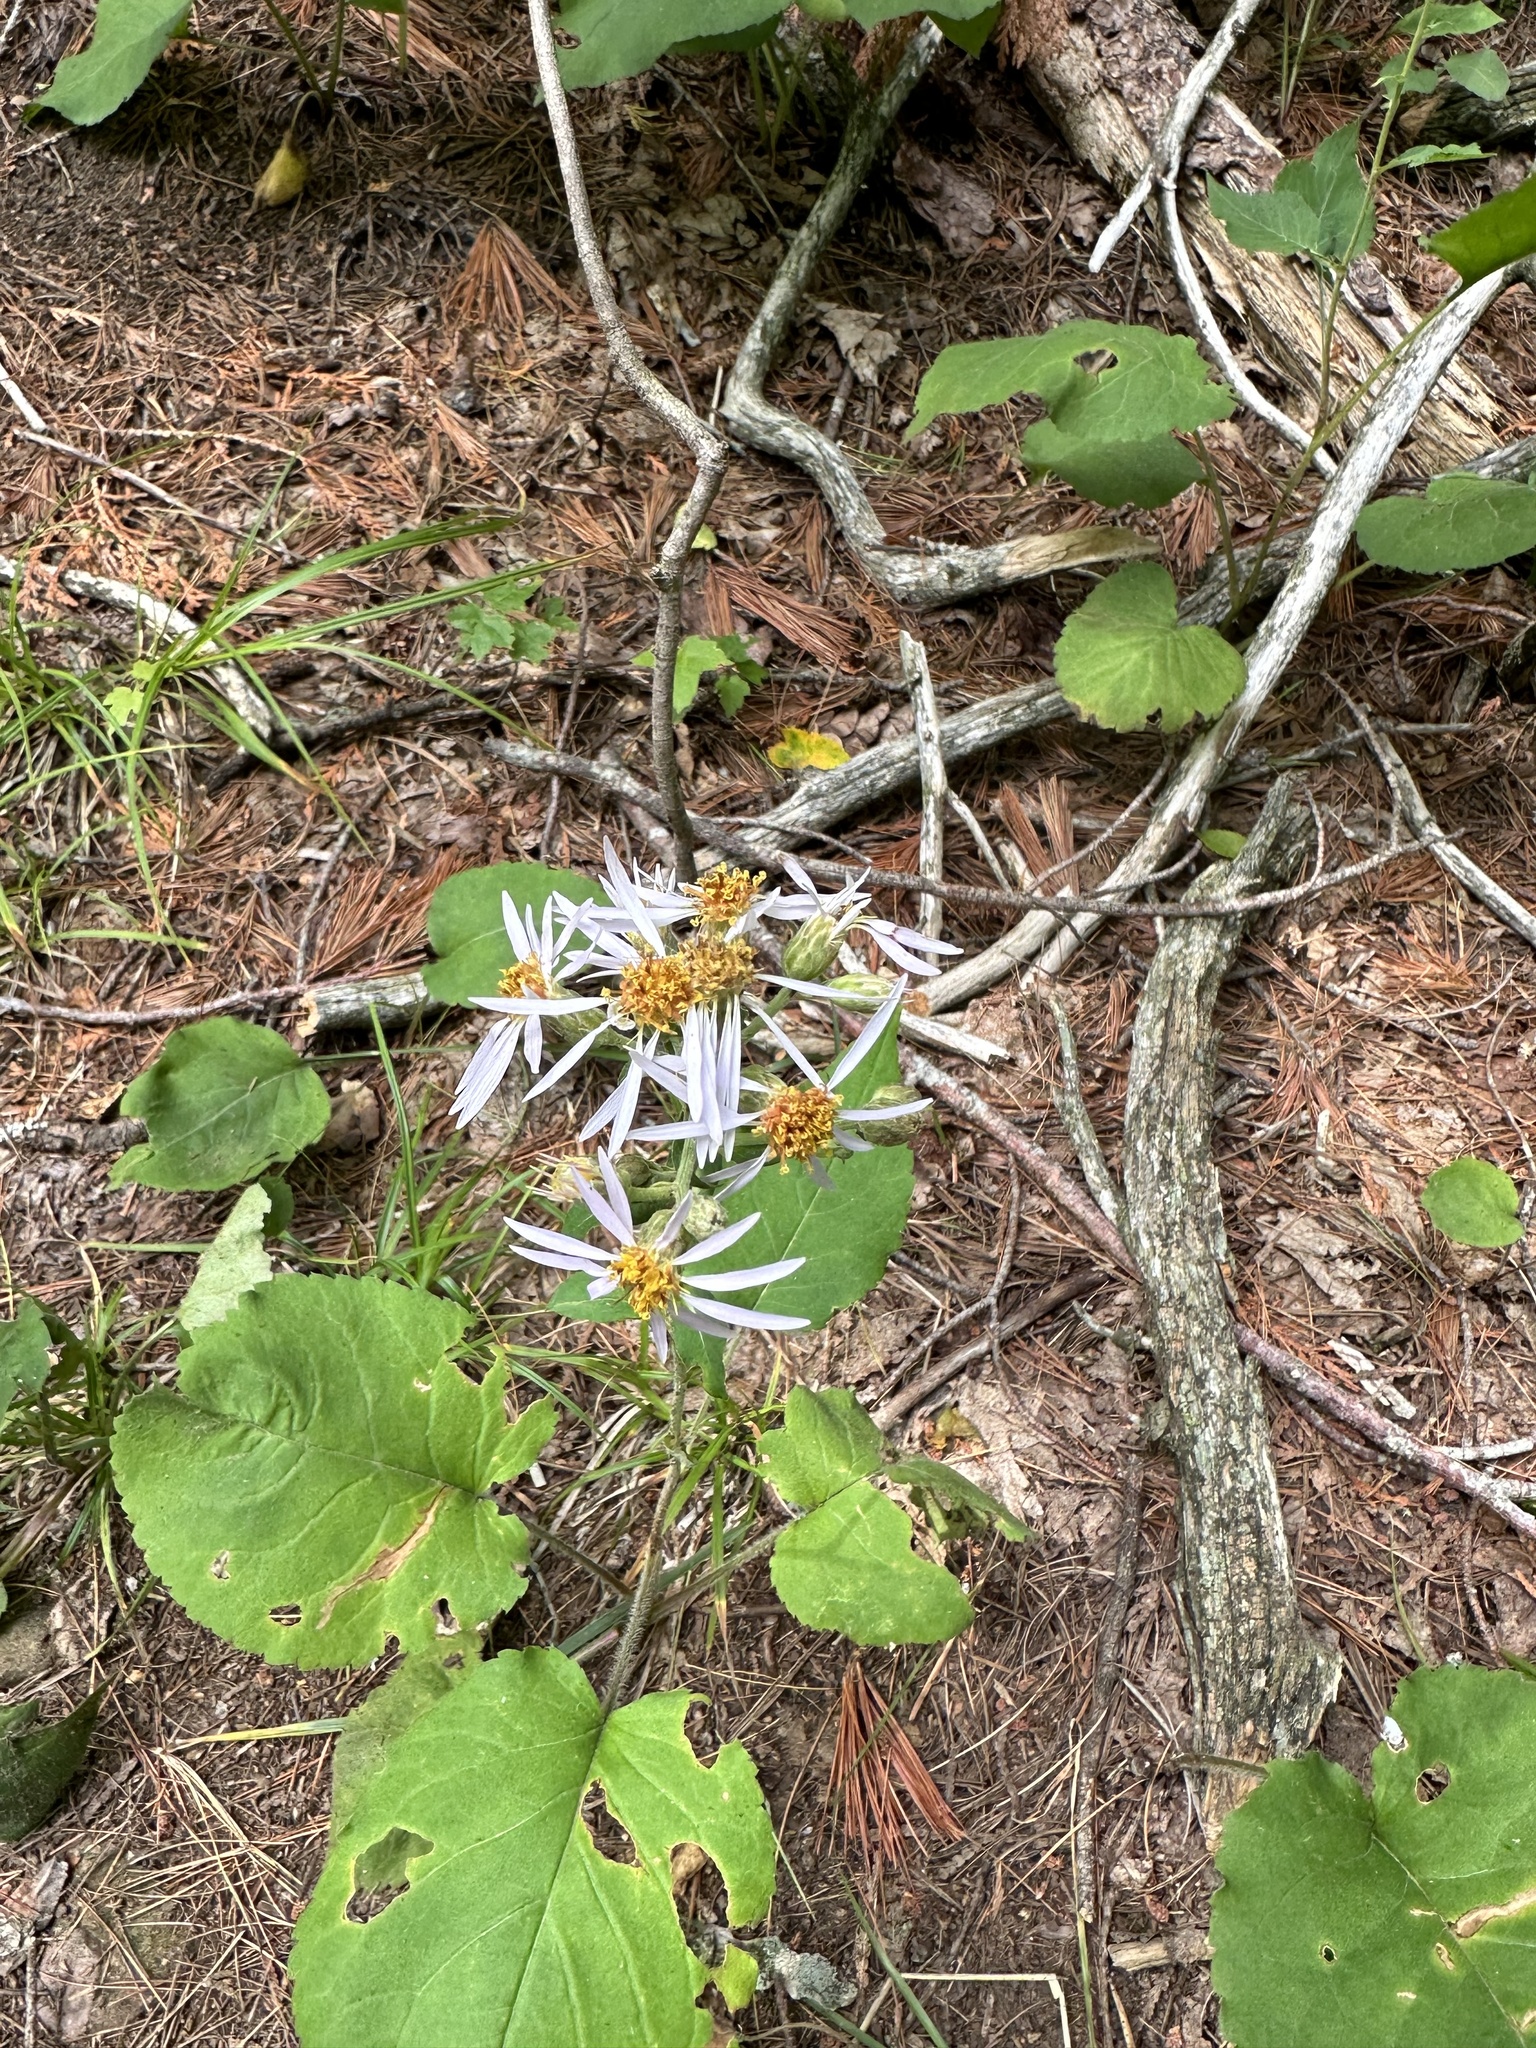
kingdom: Plantae
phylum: Tracheophyta
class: Magnoliopsida
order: Asterales
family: Asteraceae
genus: Eurybia
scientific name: Eurybia macrophylla
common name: Big-leaved aster
